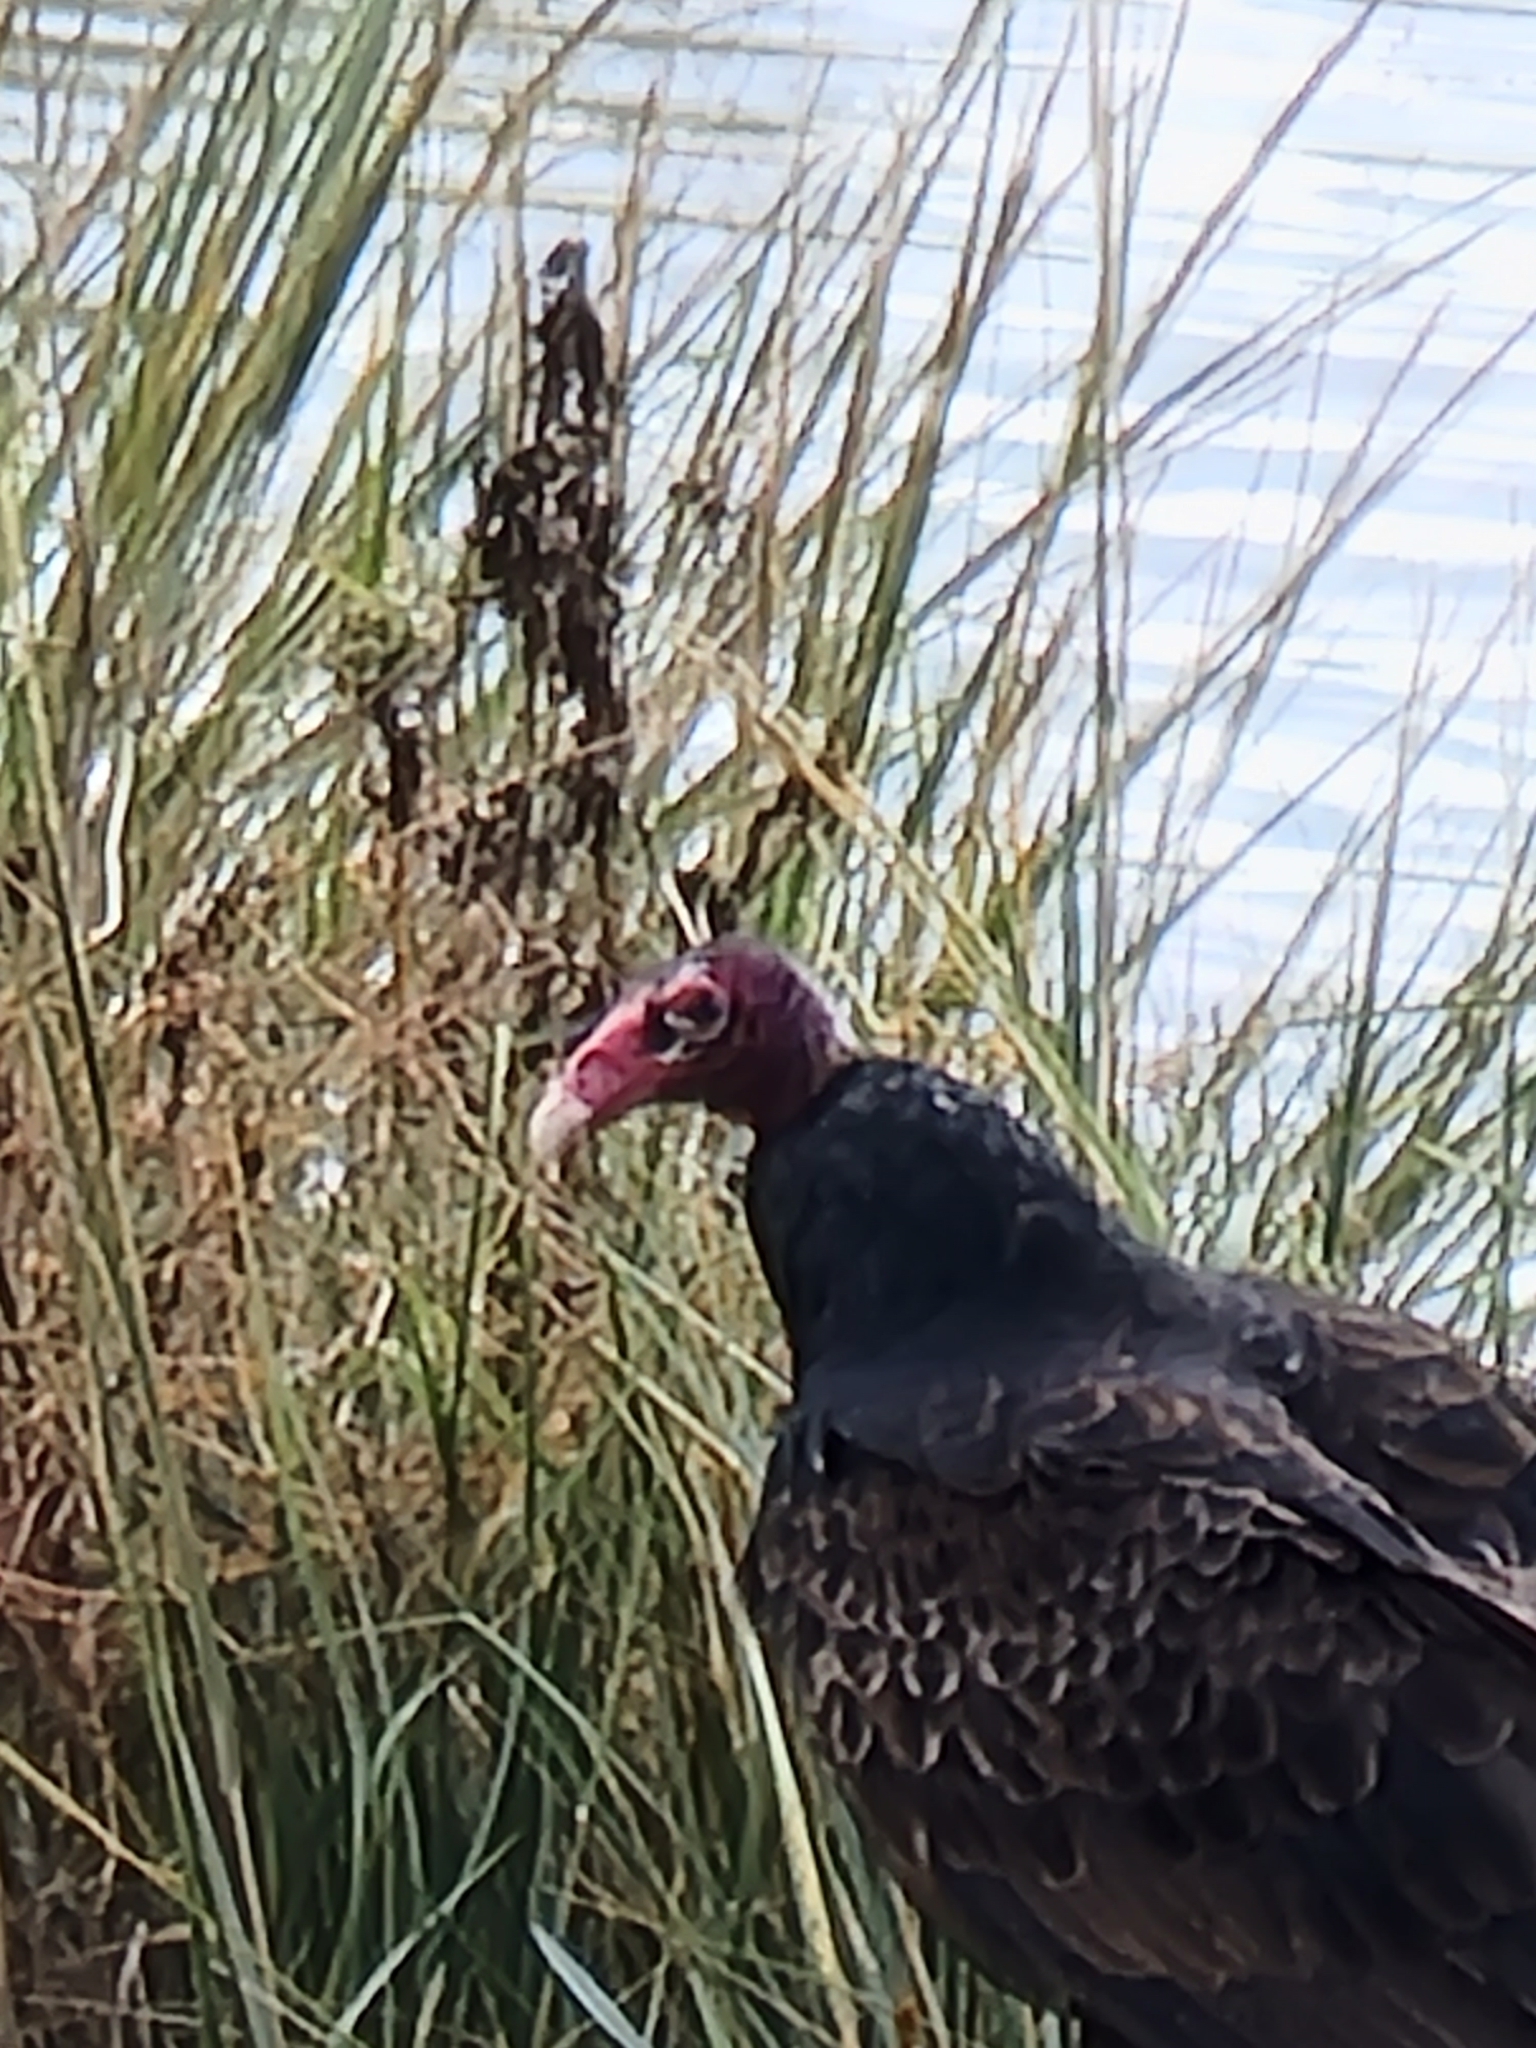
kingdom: Animalia
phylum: Chordata
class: Aves
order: Accipitriformes
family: Cathartidae
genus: Cathartes
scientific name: Cathartes aura
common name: Turkey vulture
